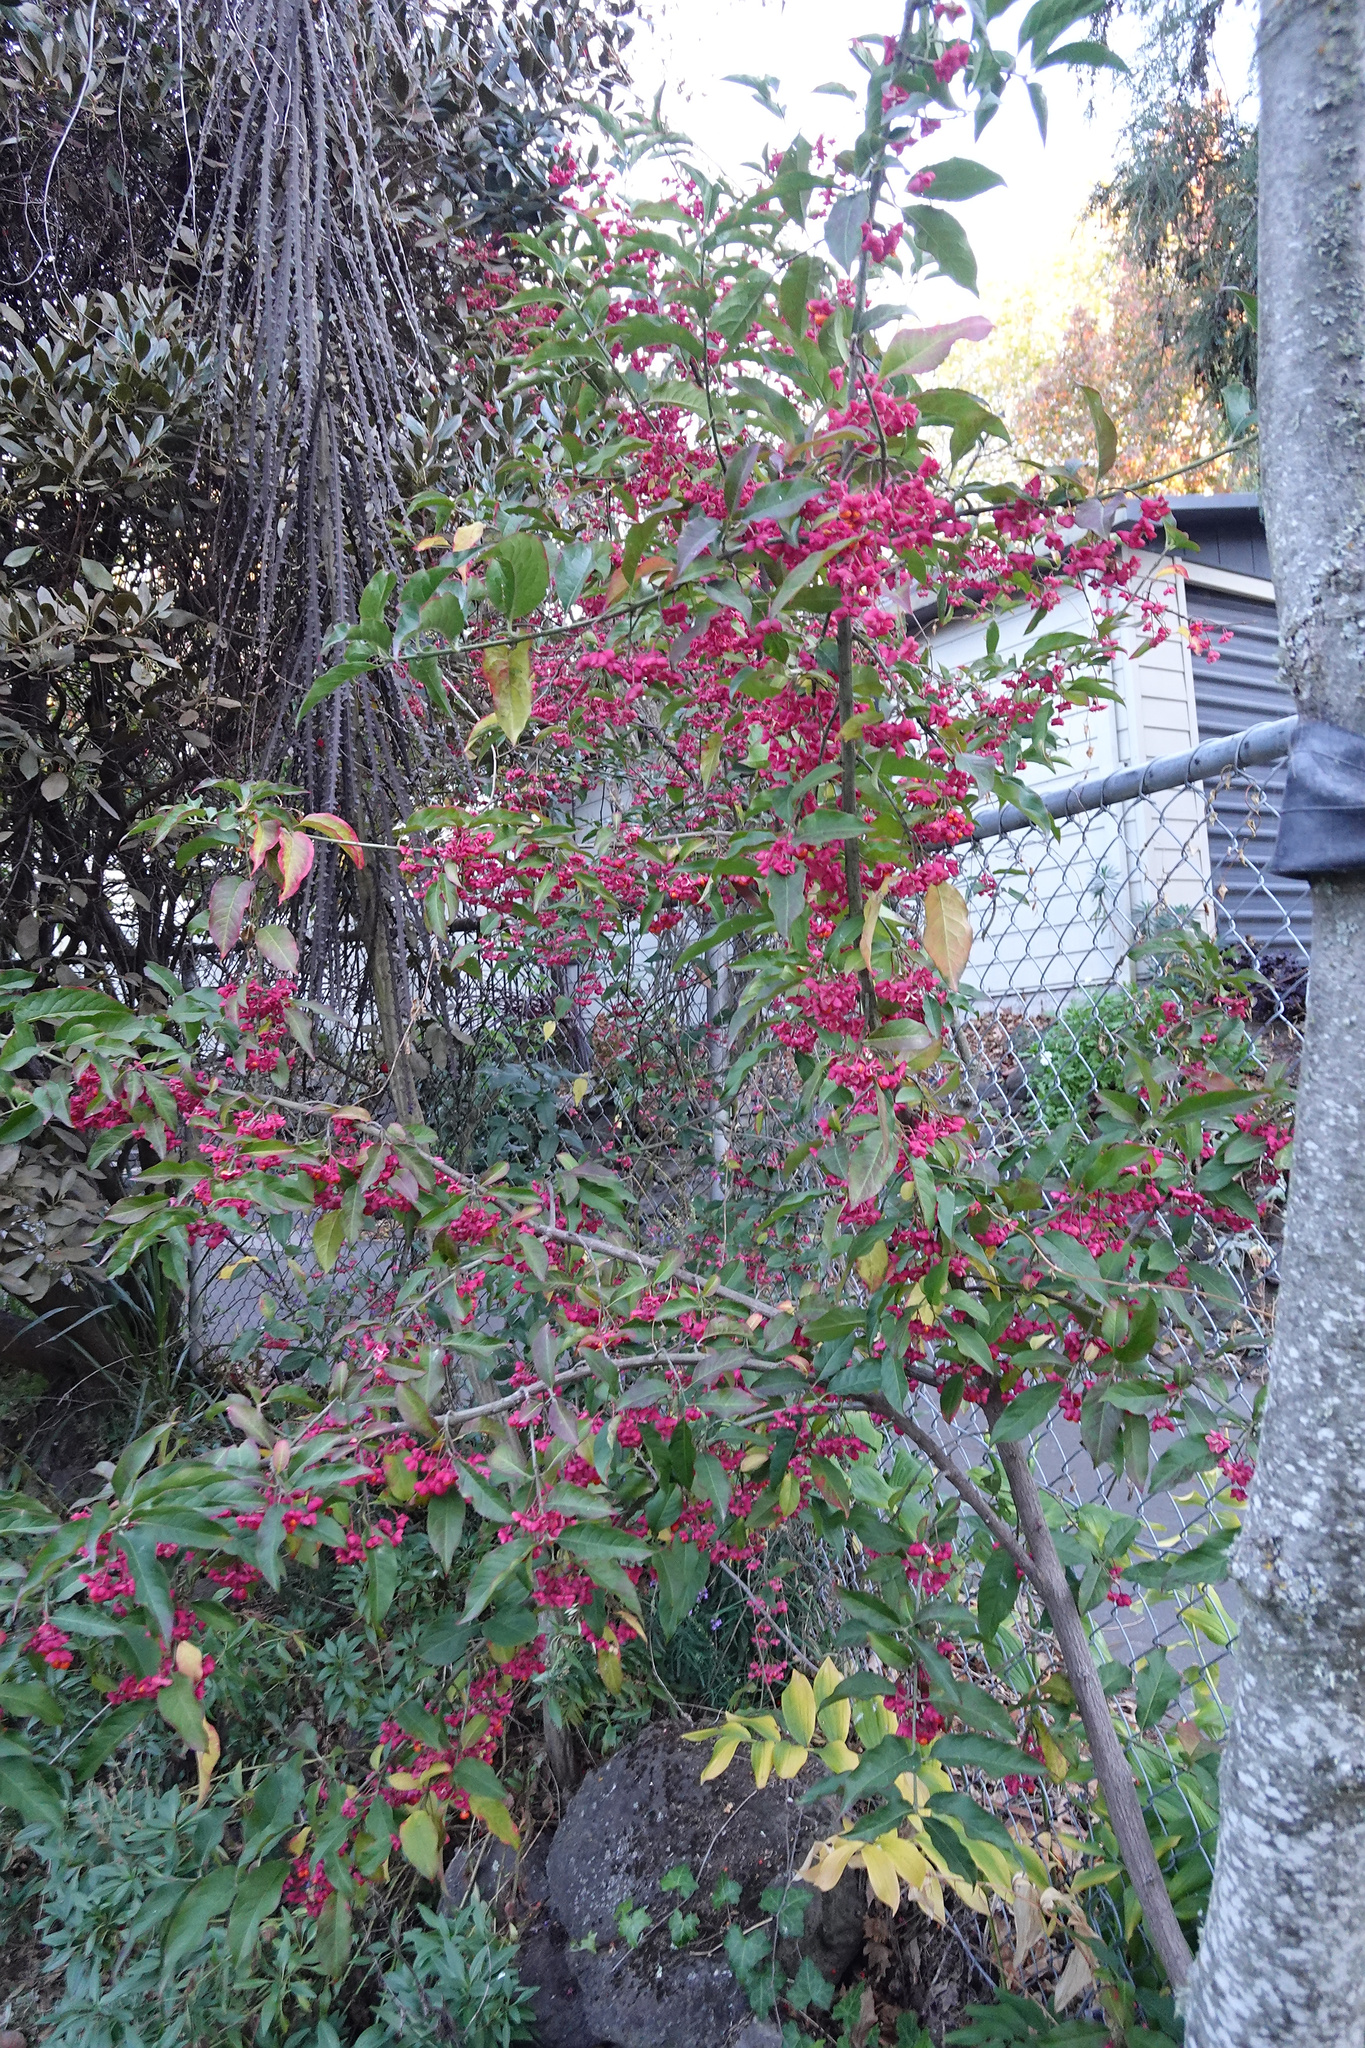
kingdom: Plantae
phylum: Tracheophyta
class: Magnoliopsida
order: Celastrales
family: Celastraceae
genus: Euonymus
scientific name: Euonymus europaeus
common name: Spindle
